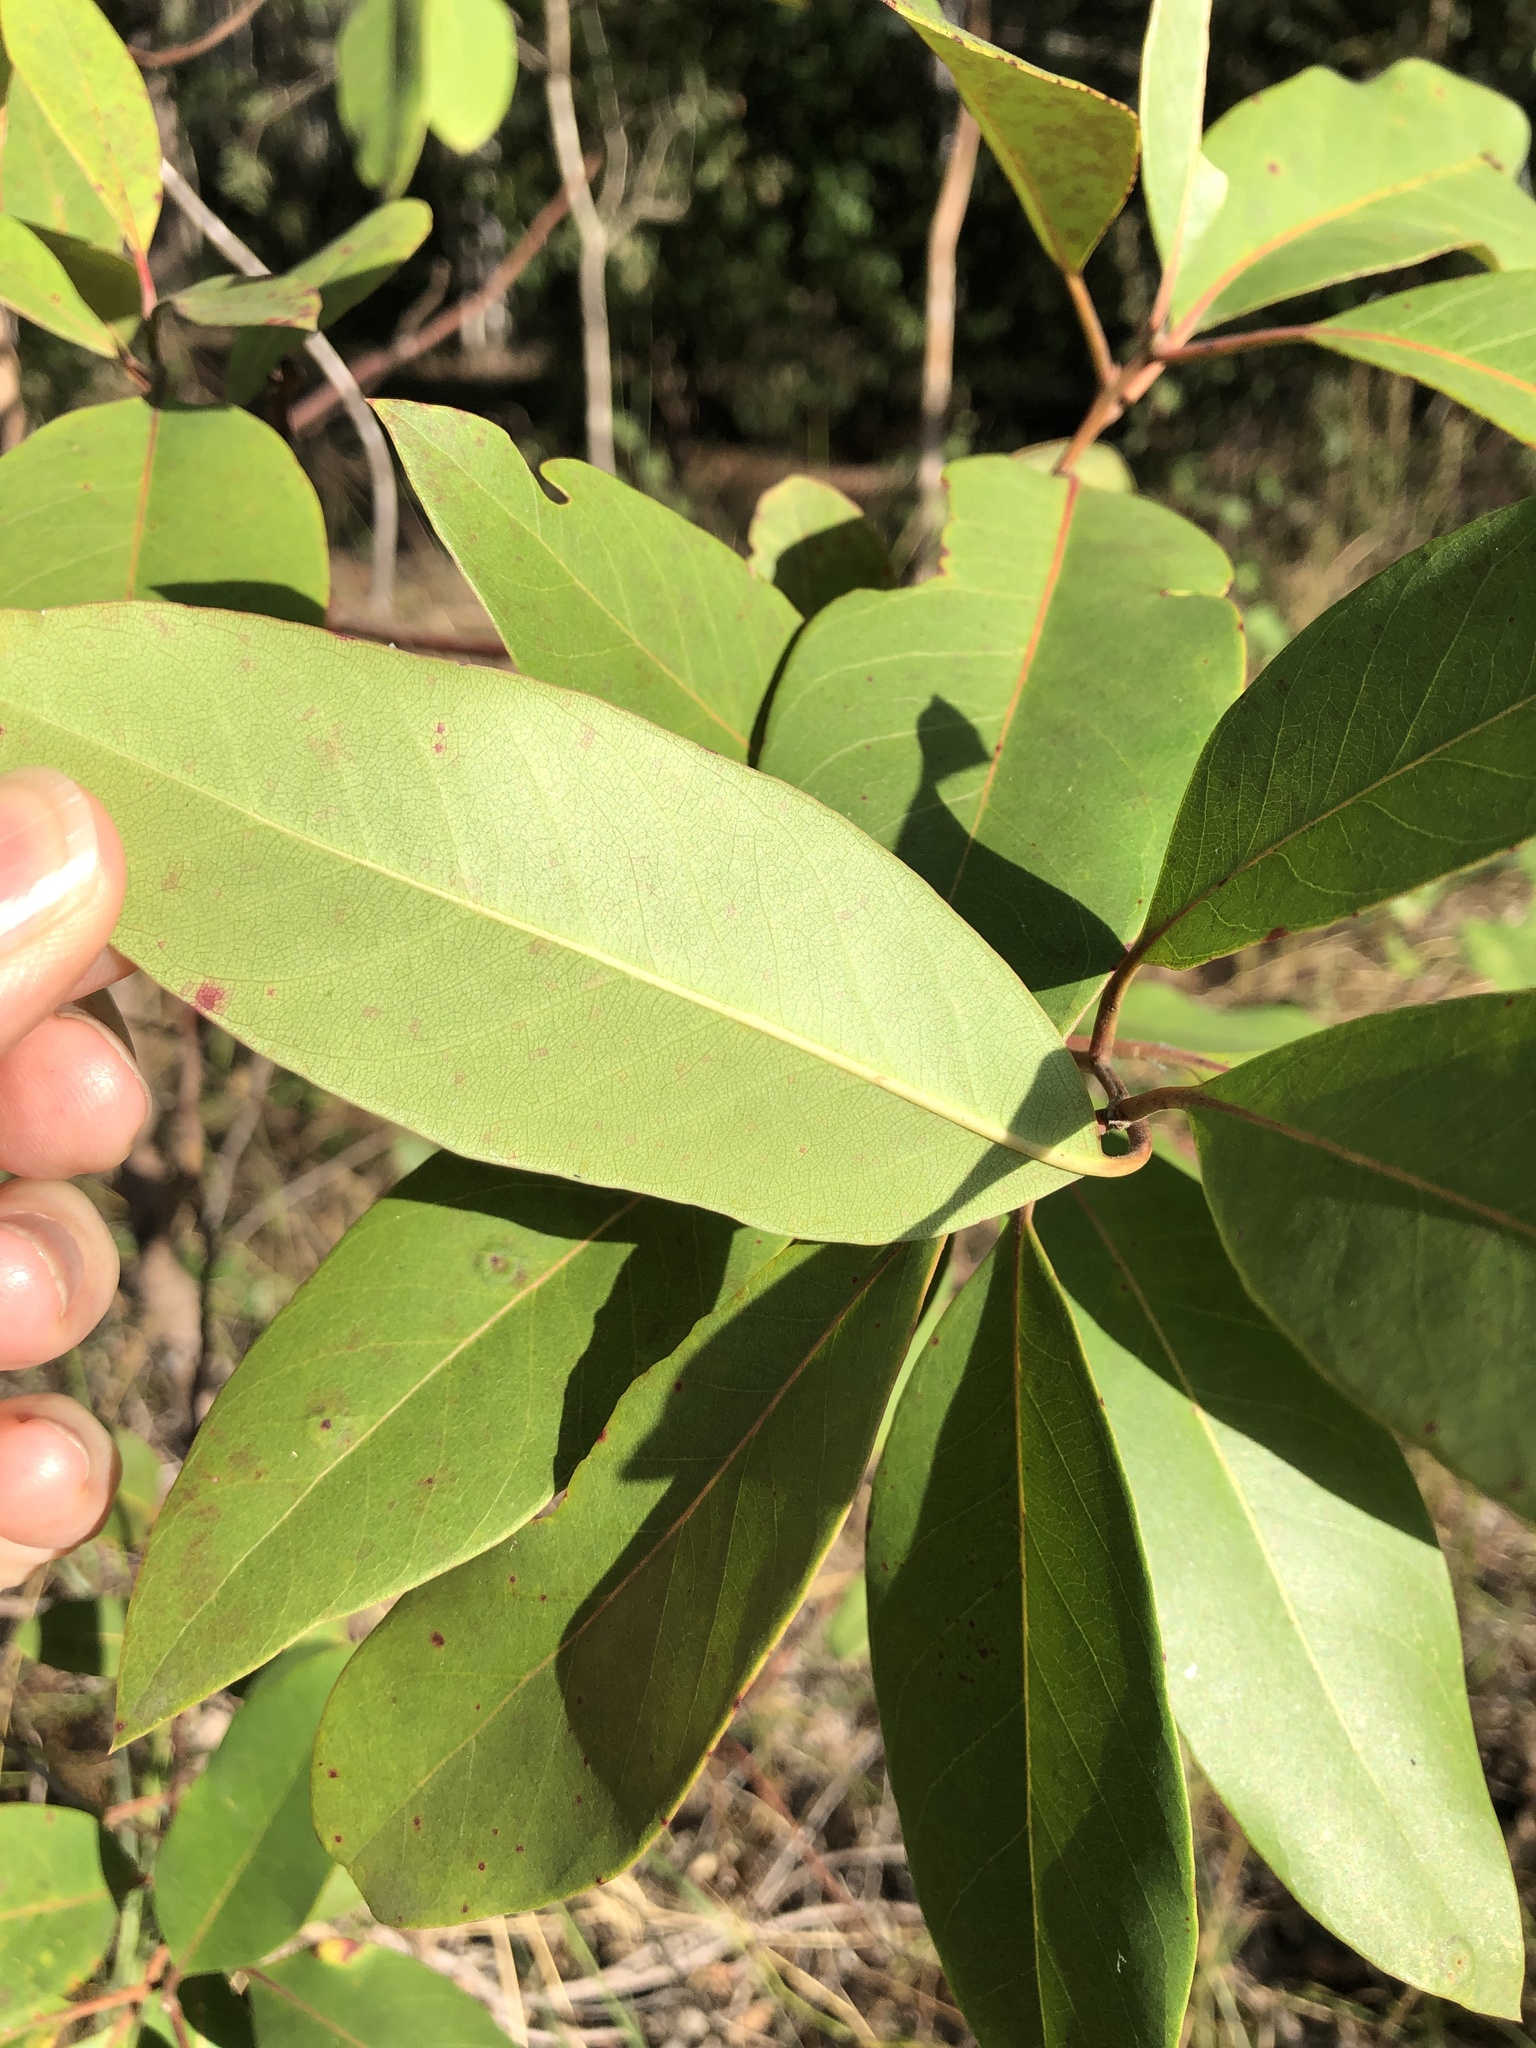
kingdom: Plantae
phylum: Tracheophyta
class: Magnoliopsida
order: Myrtales
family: Myrtaceae
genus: Lophostemon
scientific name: Lophostemon confertus
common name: Brisbane box
